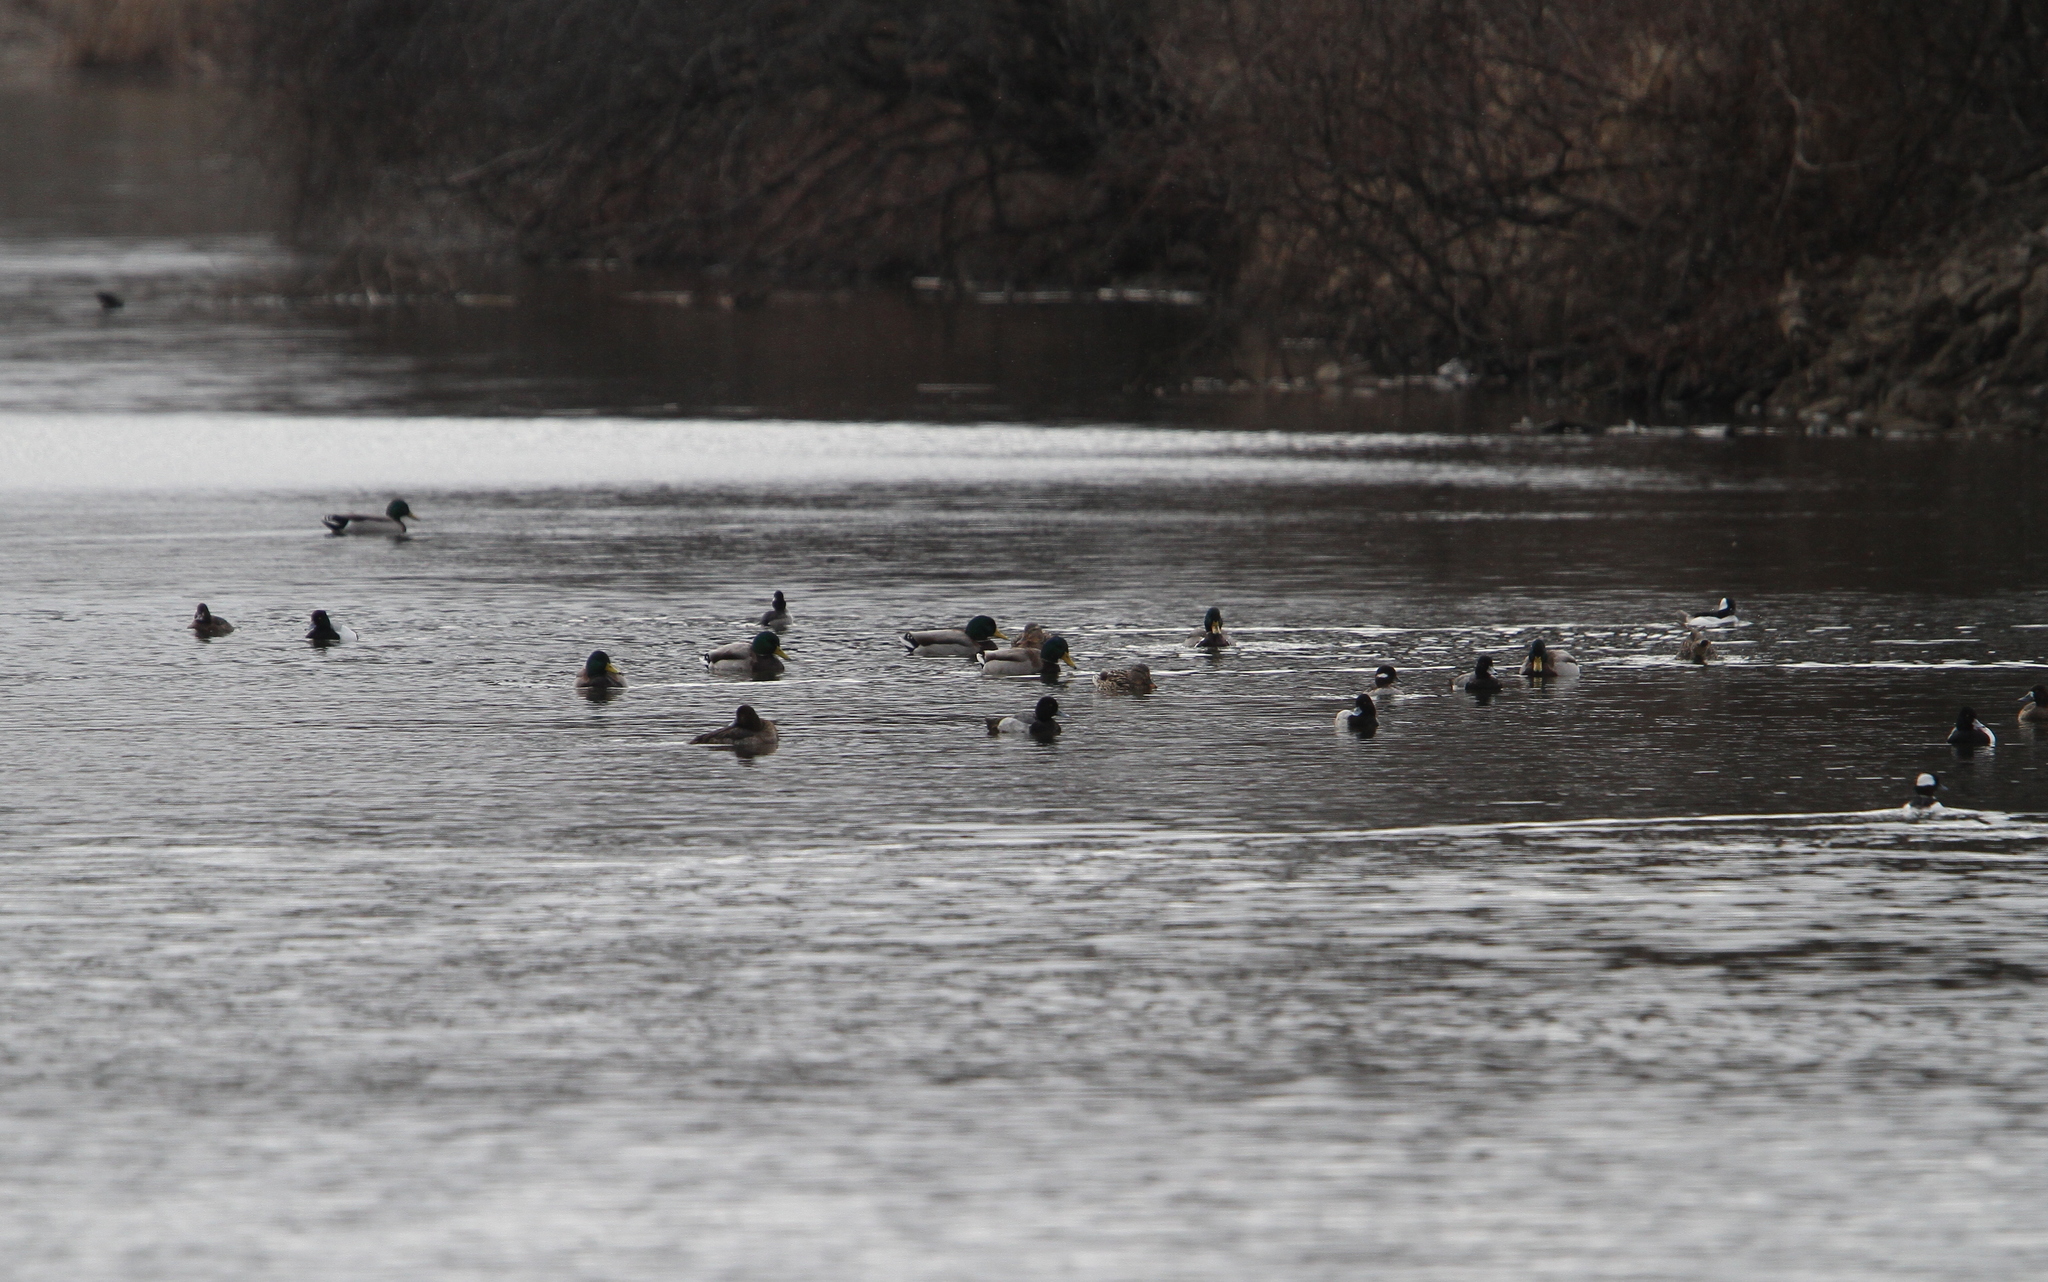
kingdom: Animalia
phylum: Chordata
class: Aves
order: Anseriformes
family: Anatidae
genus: Anas
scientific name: Anas platyrhynchos
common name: Mallard
